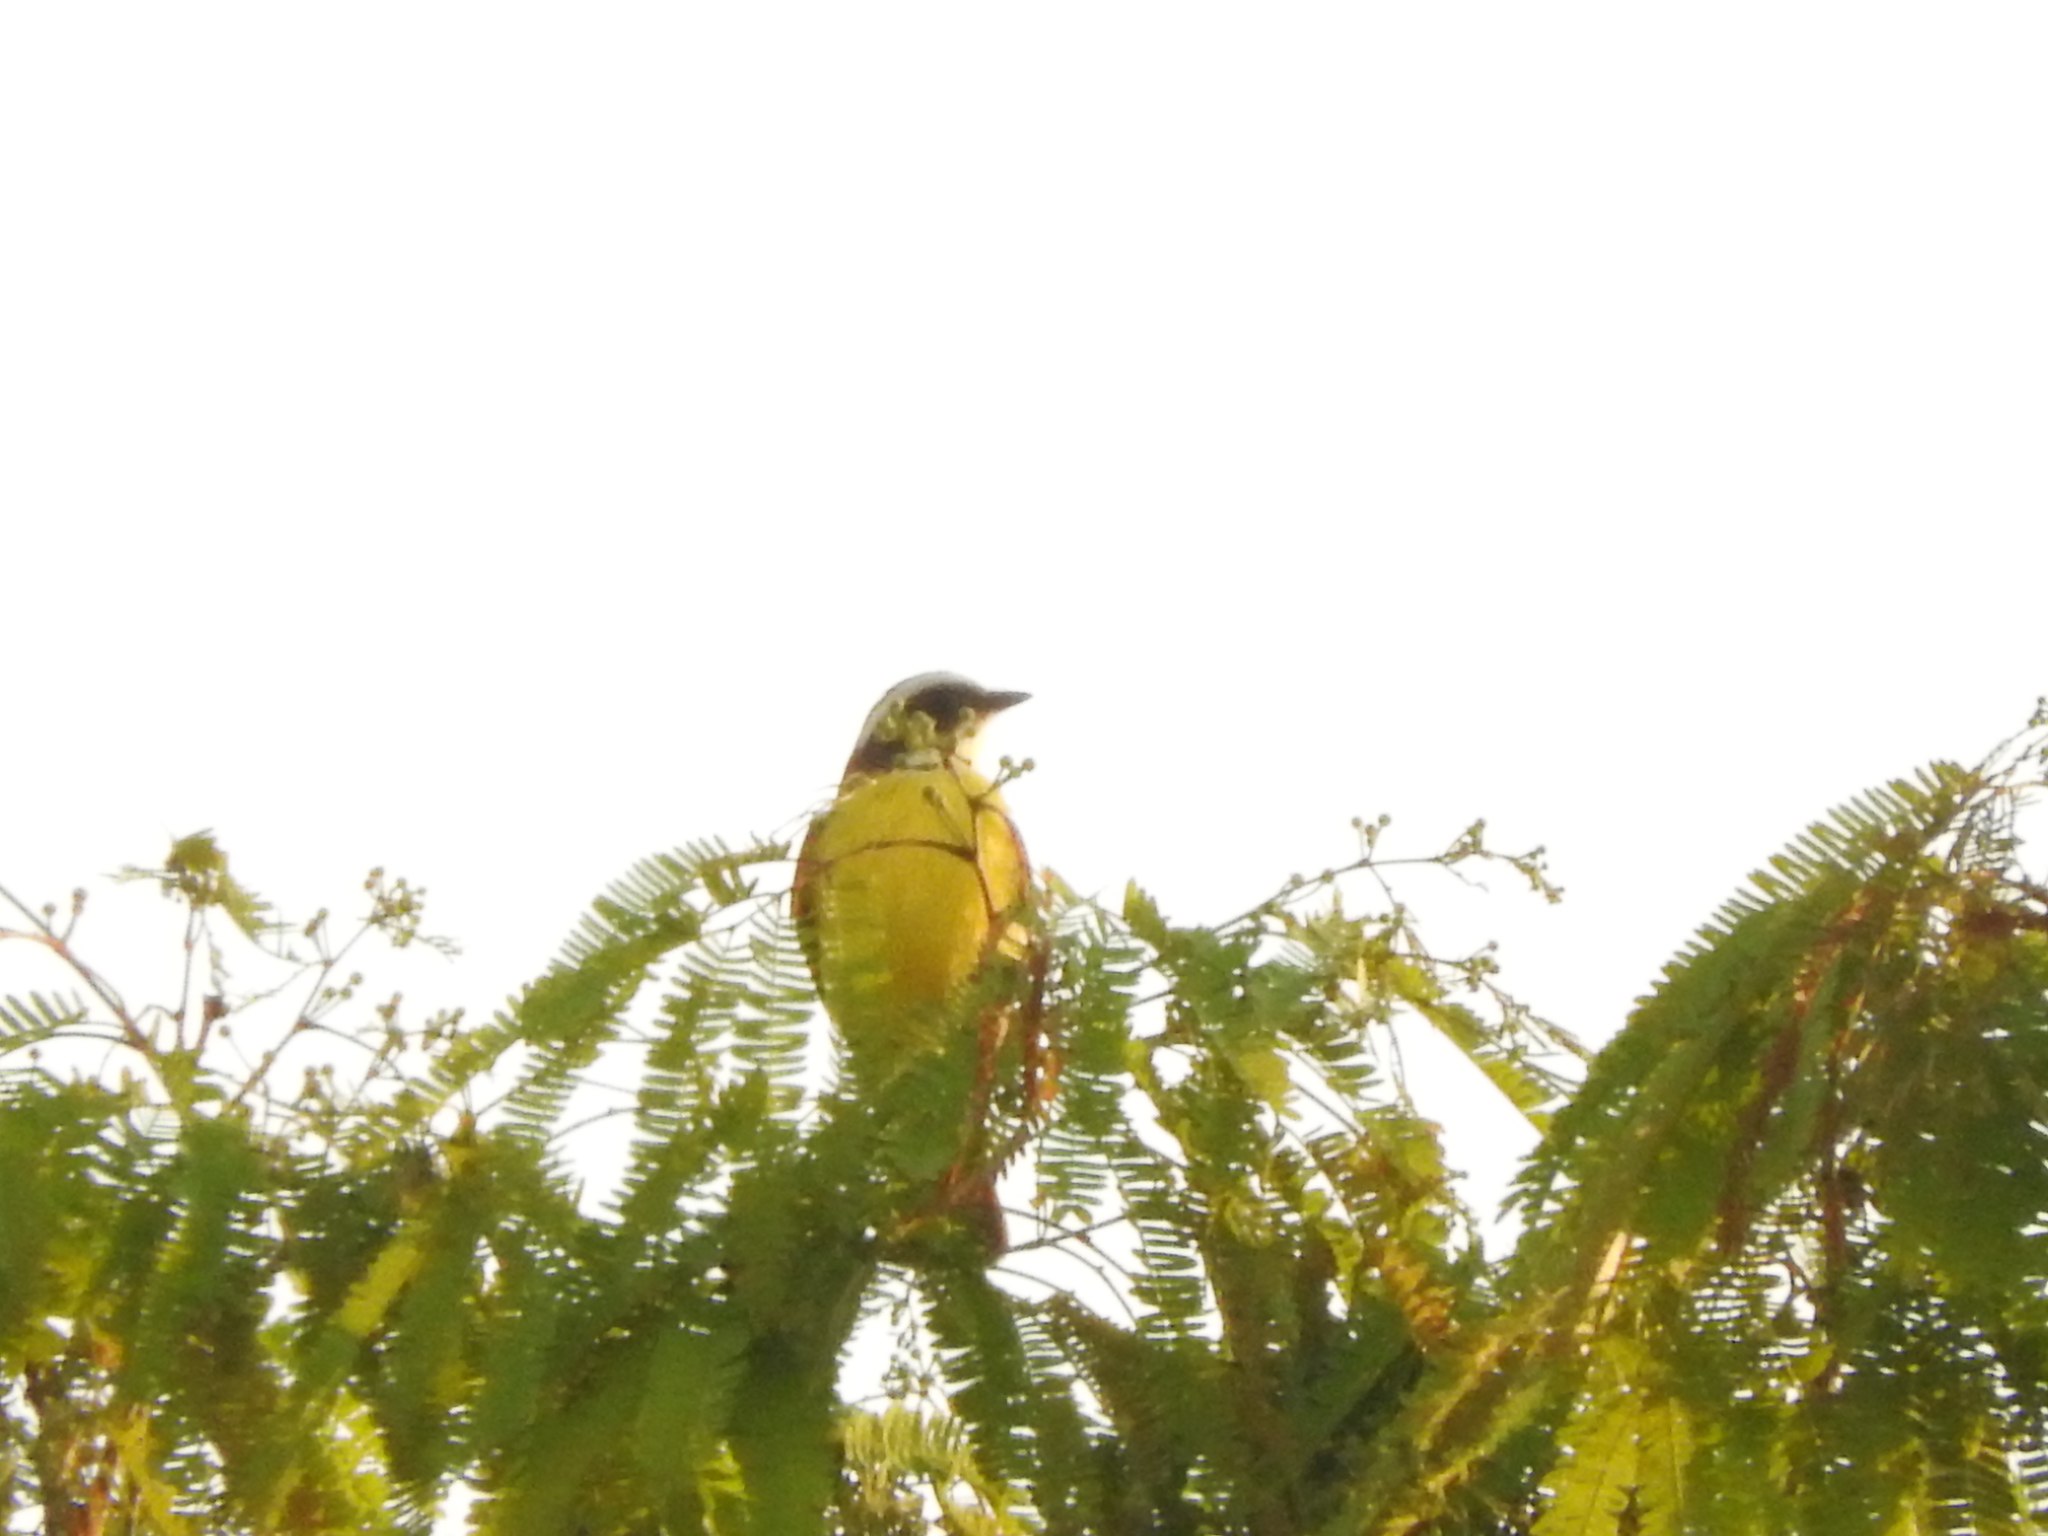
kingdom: Animalia
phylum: Chordata
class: Aves
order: Passeriformes
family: Tyrannidae
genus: Myiozetetes
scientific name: Myiozetetes similis
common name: Social flycatcher
